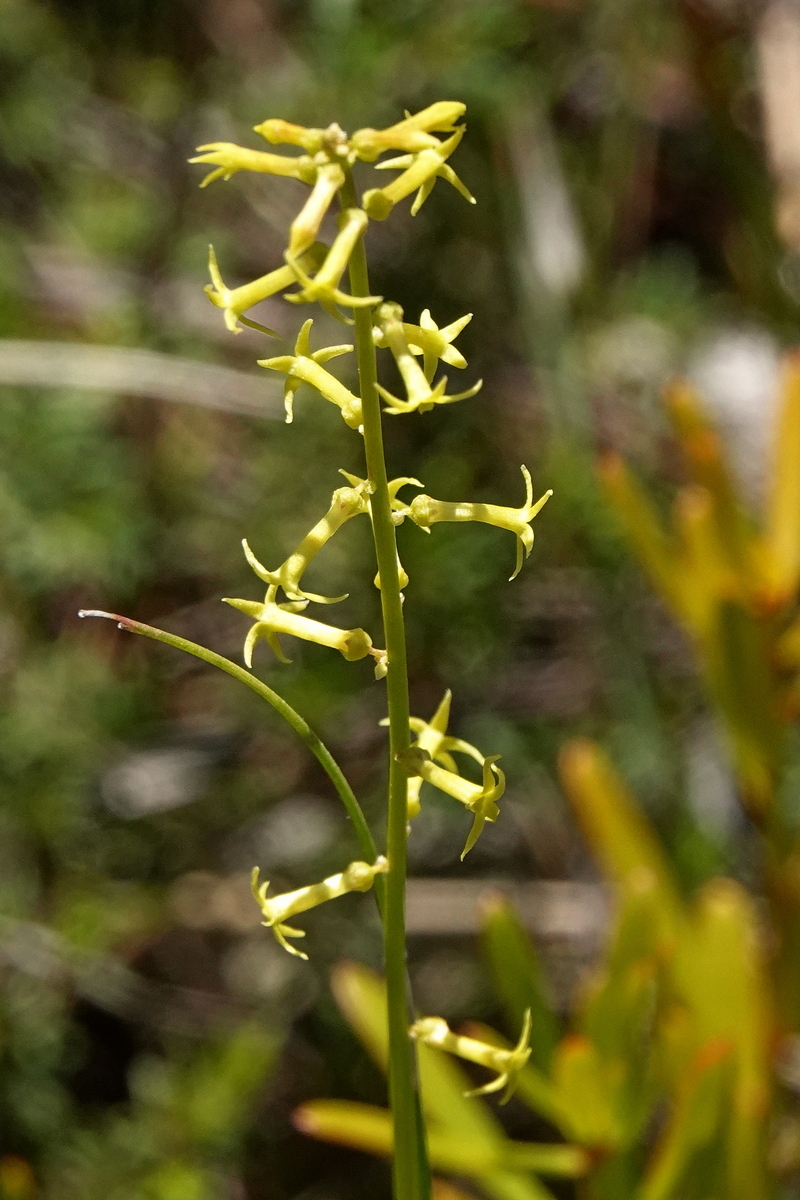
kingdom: Plantae
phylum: Tracheophyta
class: Magnoliopsida
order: Celastrales
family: Celastraceae
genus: Stackhousia
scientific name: Stackhousia viminea
